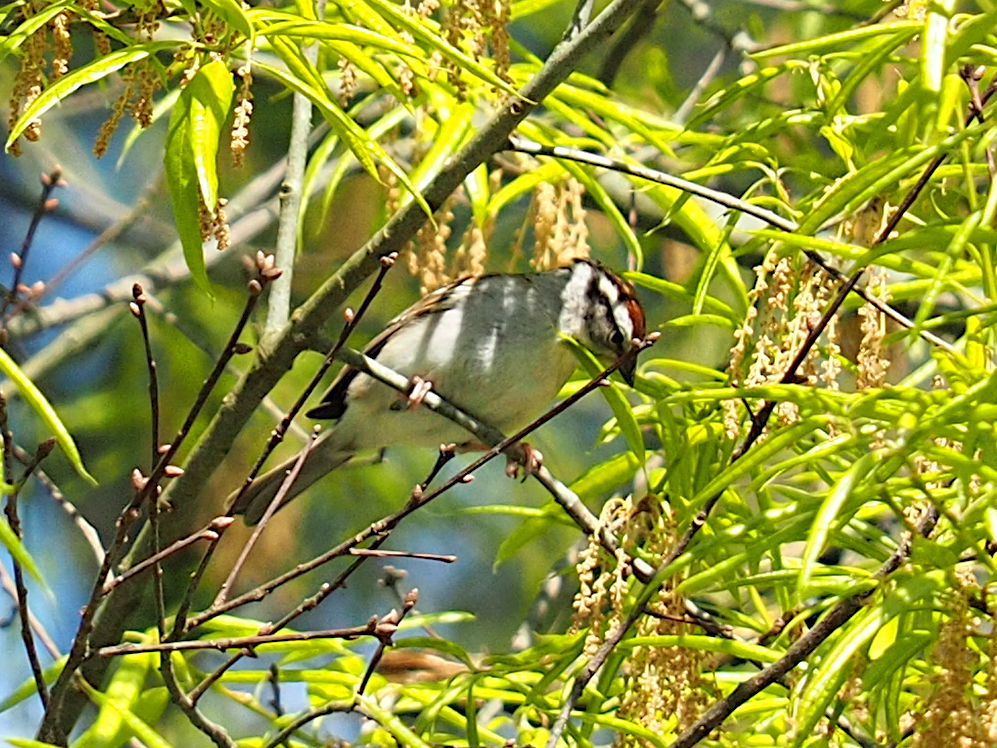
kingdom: Animalia
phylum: Chordata
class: Aves
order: Passeriformes
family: Passerellidae
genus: Spizella
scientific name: Spizella passerina
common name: Chipping sparrow
